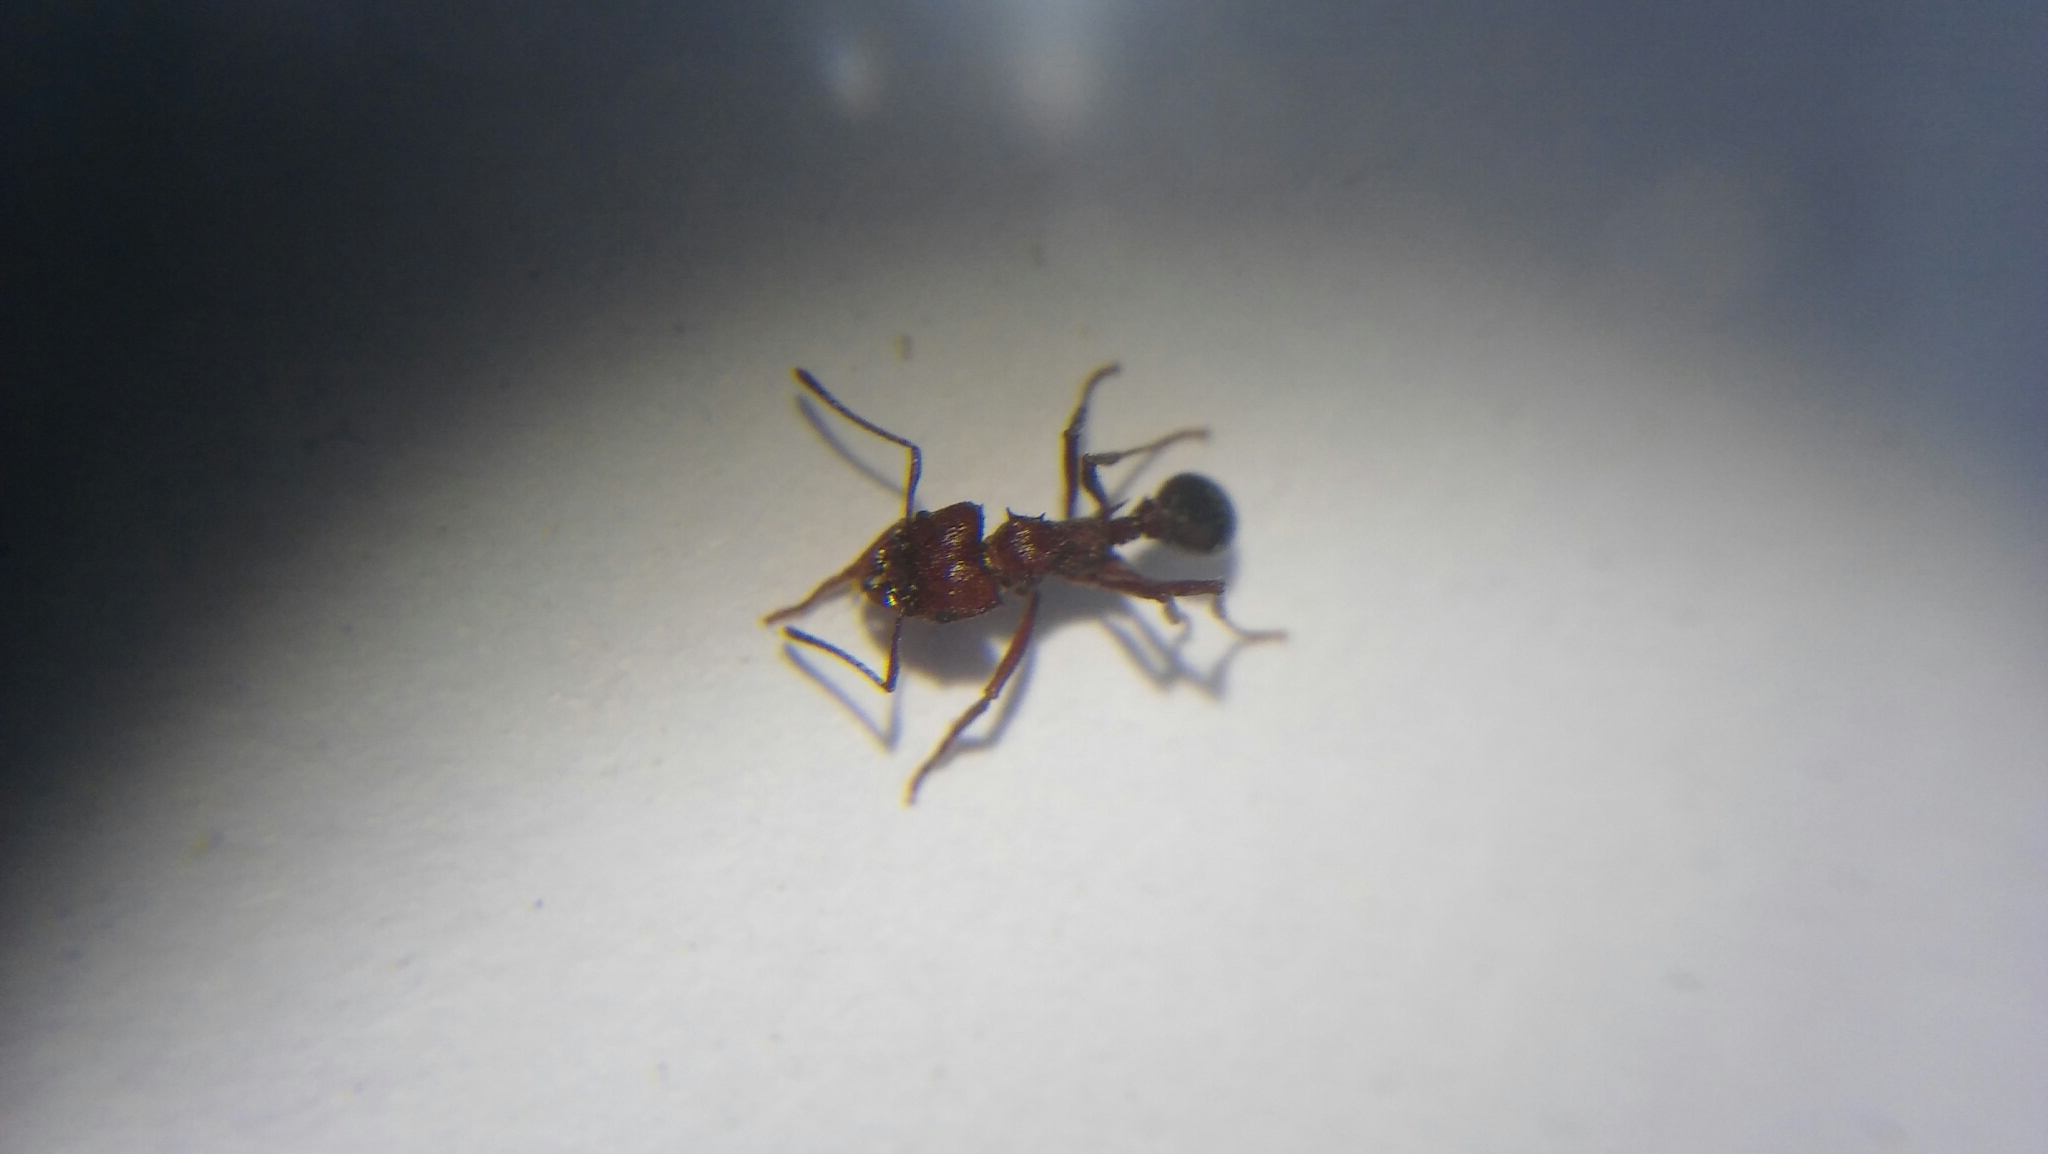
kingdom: Animalia
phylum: Arthropoda
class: Insecta
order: Hymenoptera
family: Formicidae
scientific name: Formicidae
